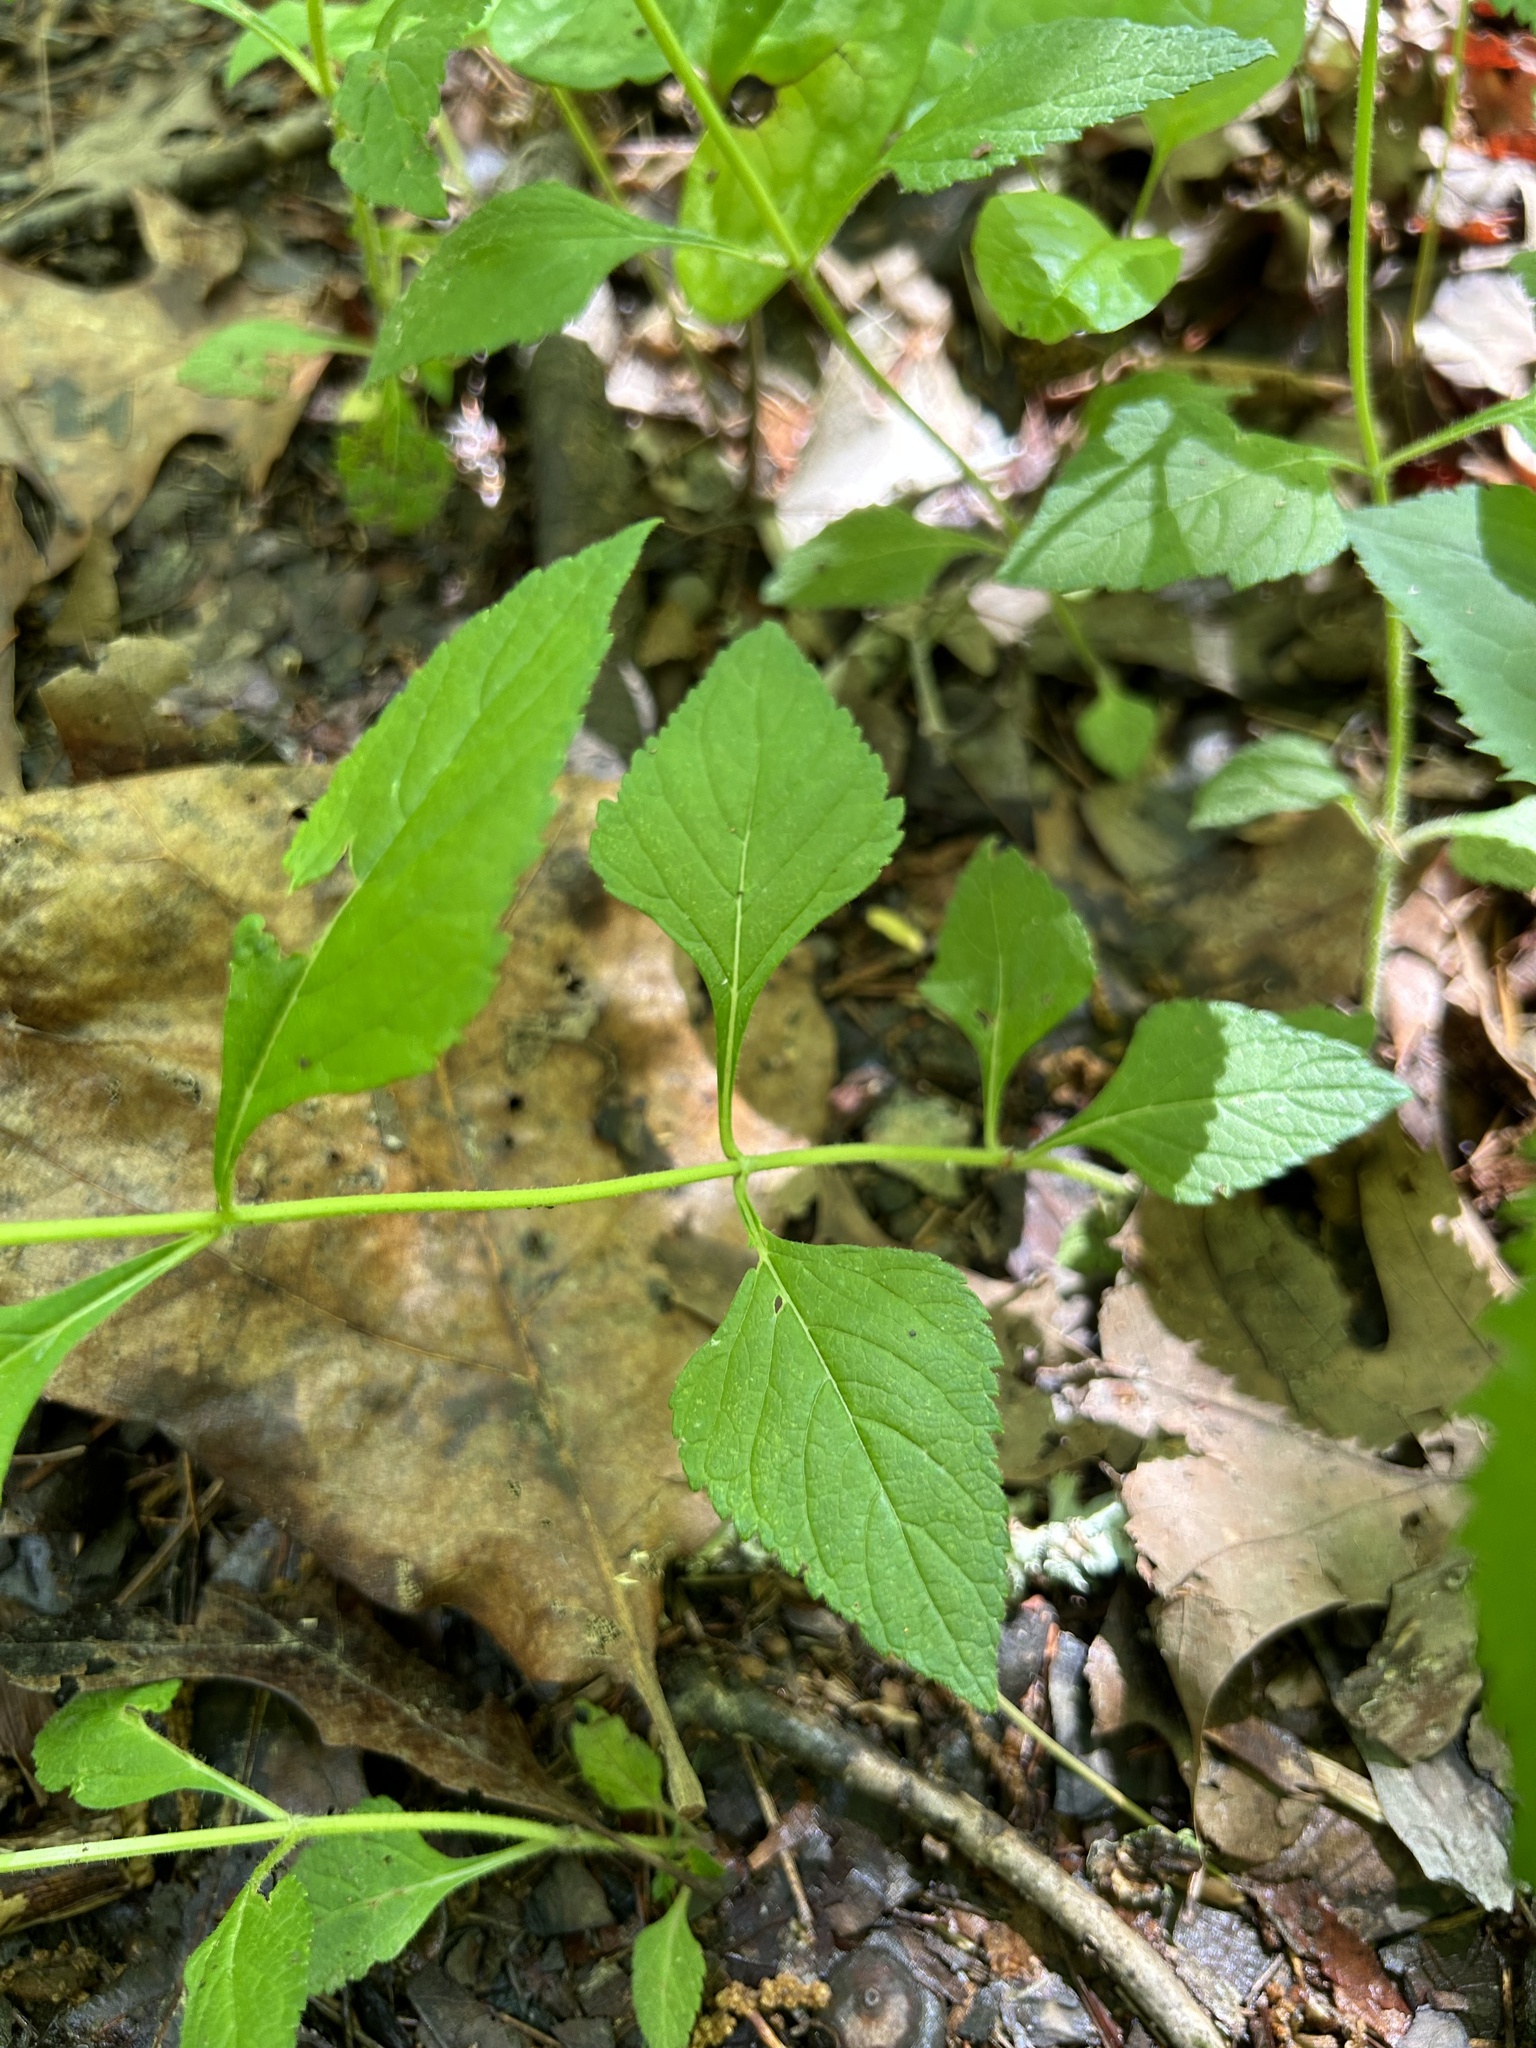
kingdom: Plantae
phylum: Tracheophyta
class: Magnoliopsida
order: Lamiales
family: Lamiaceae
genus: Salvia
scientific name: Salvia urticifolia
